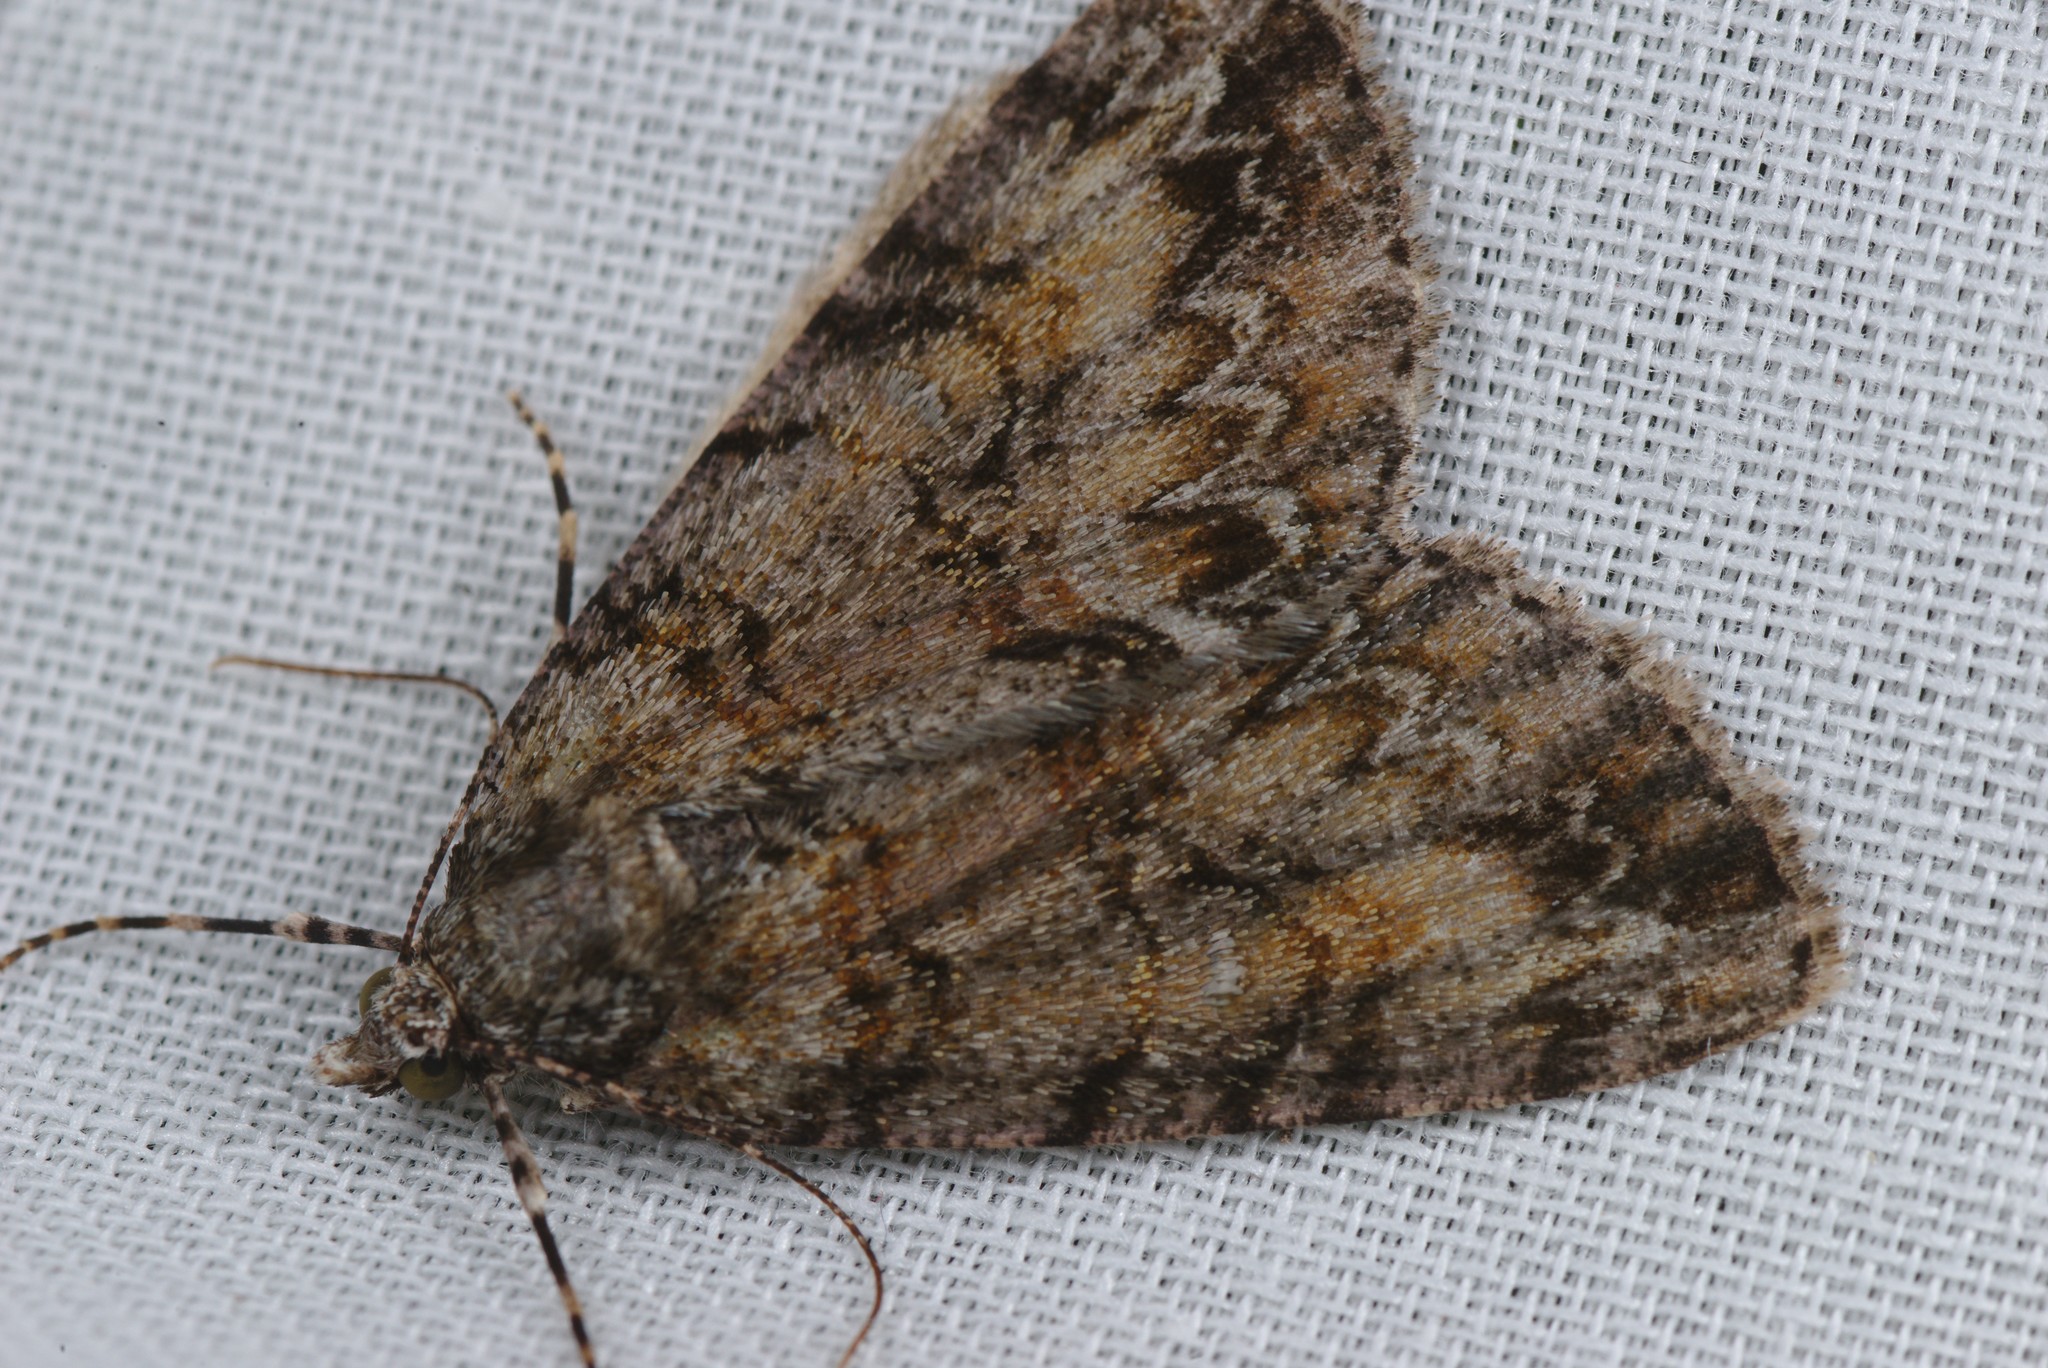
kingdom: Animalia
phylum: Arthropoda
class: Insecta
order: Lepidoptera
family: Geometridae
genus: Pseudocoremia
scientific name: Pseudocoremia suavis
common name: Common forest looper
